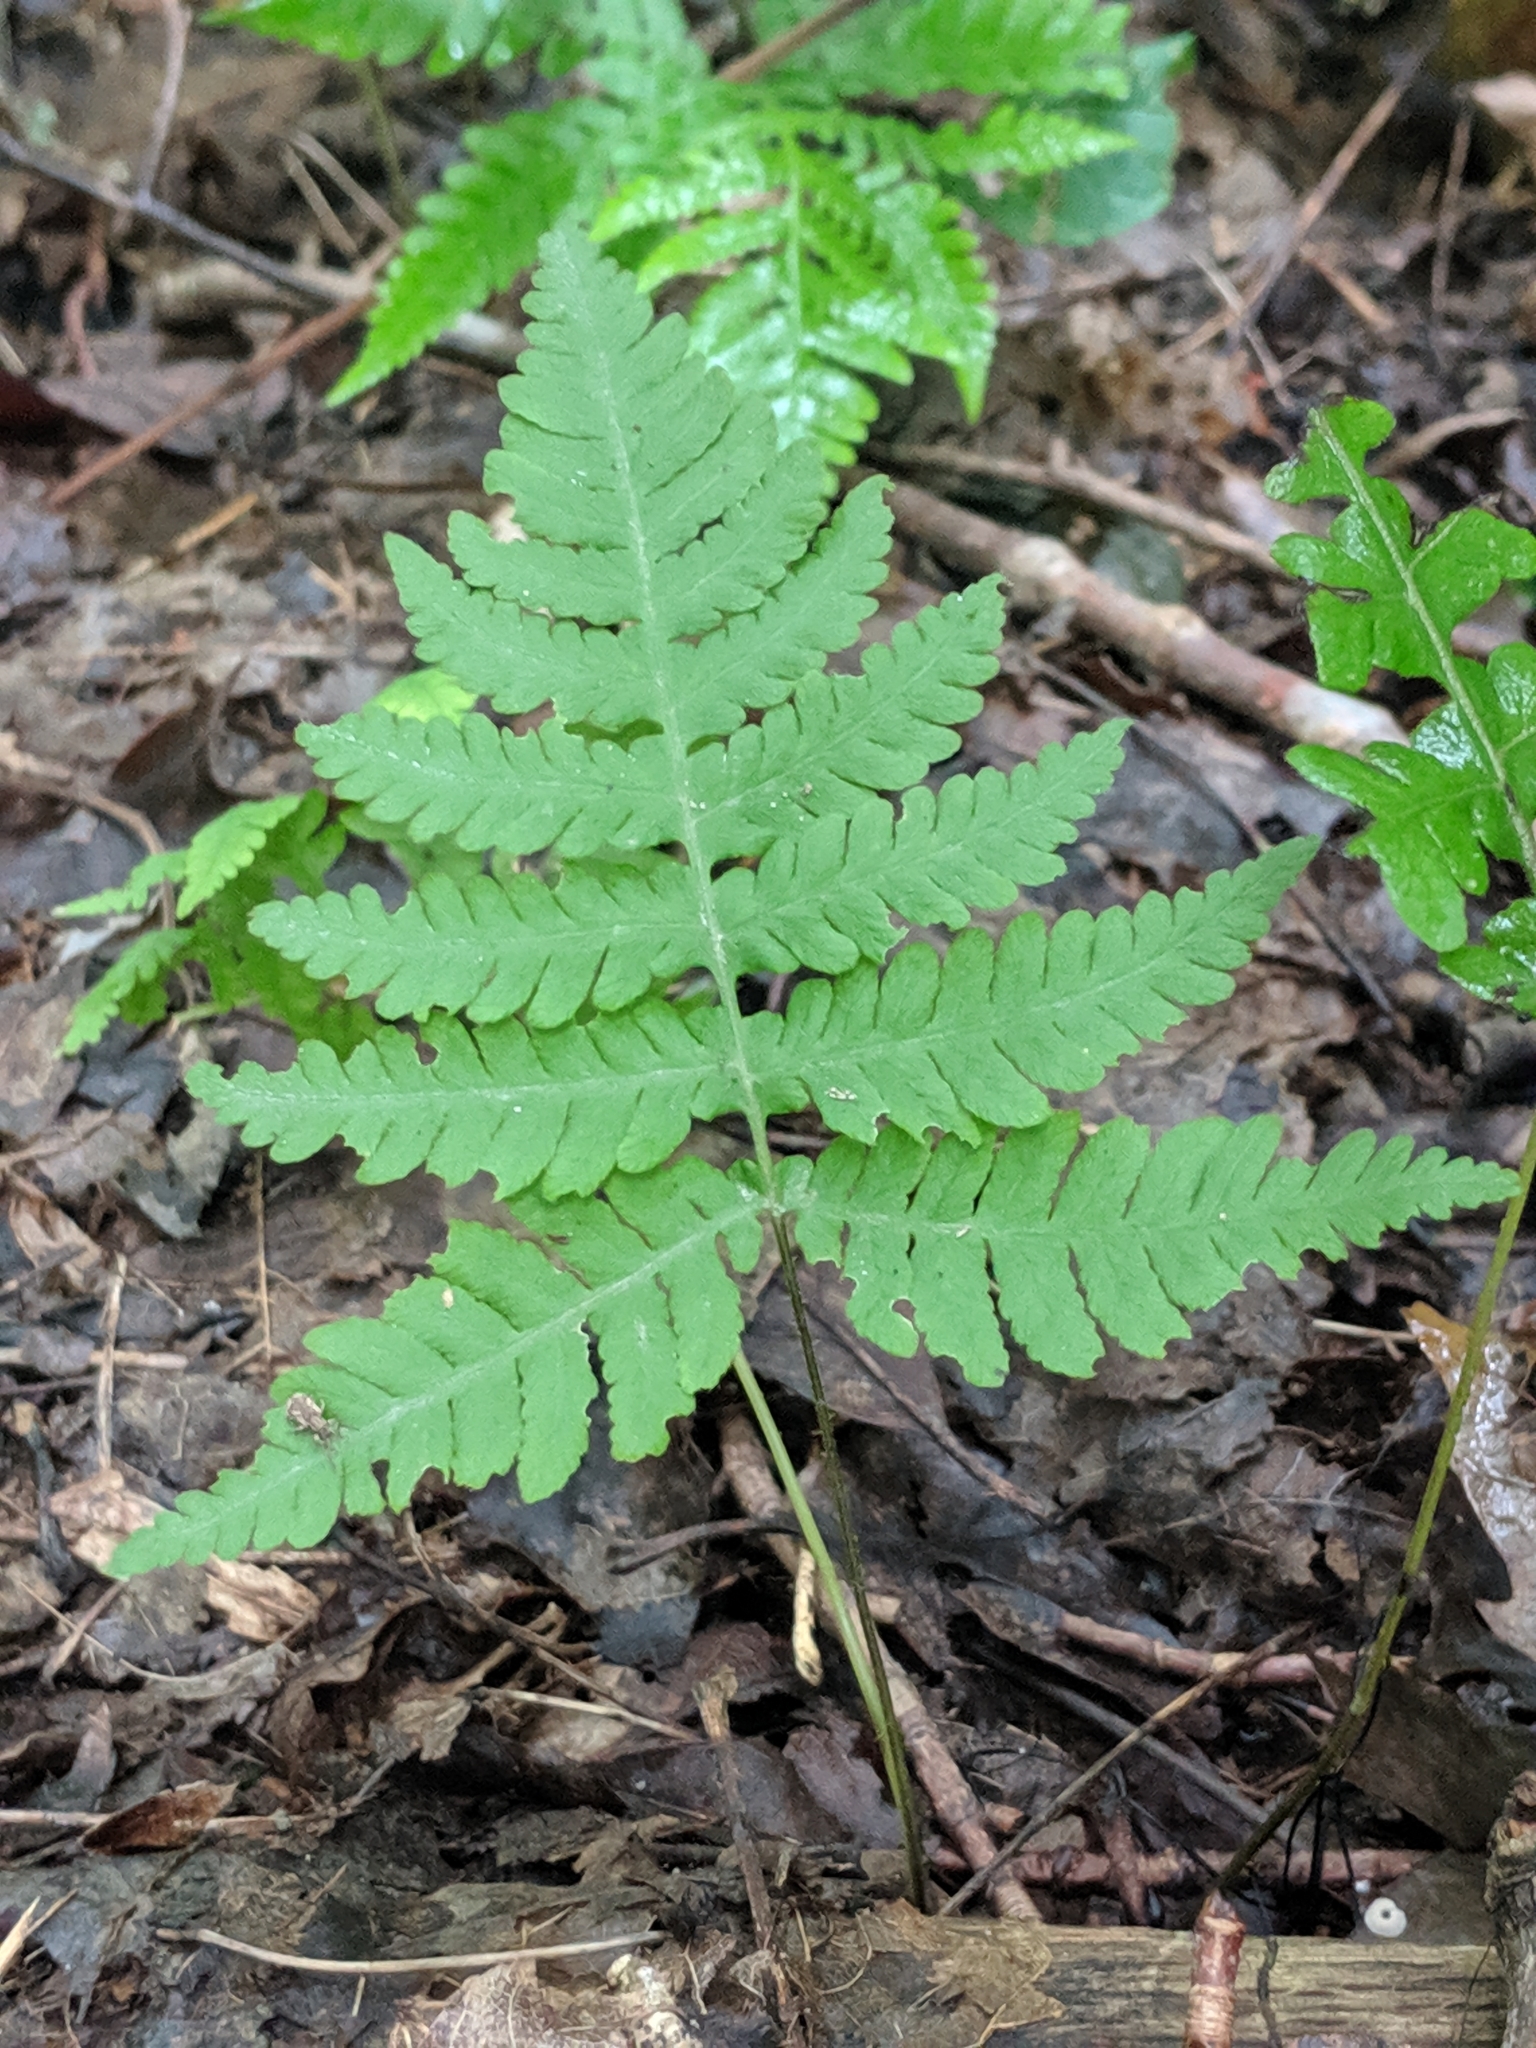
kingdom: Plantae
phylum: Tracheophyta
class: Polypodiopsida
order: Polypodiales
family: Thelypteridaceae
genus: Phegopteris
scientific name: Phegopteris hexagonoptera
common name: Broad beech fern
